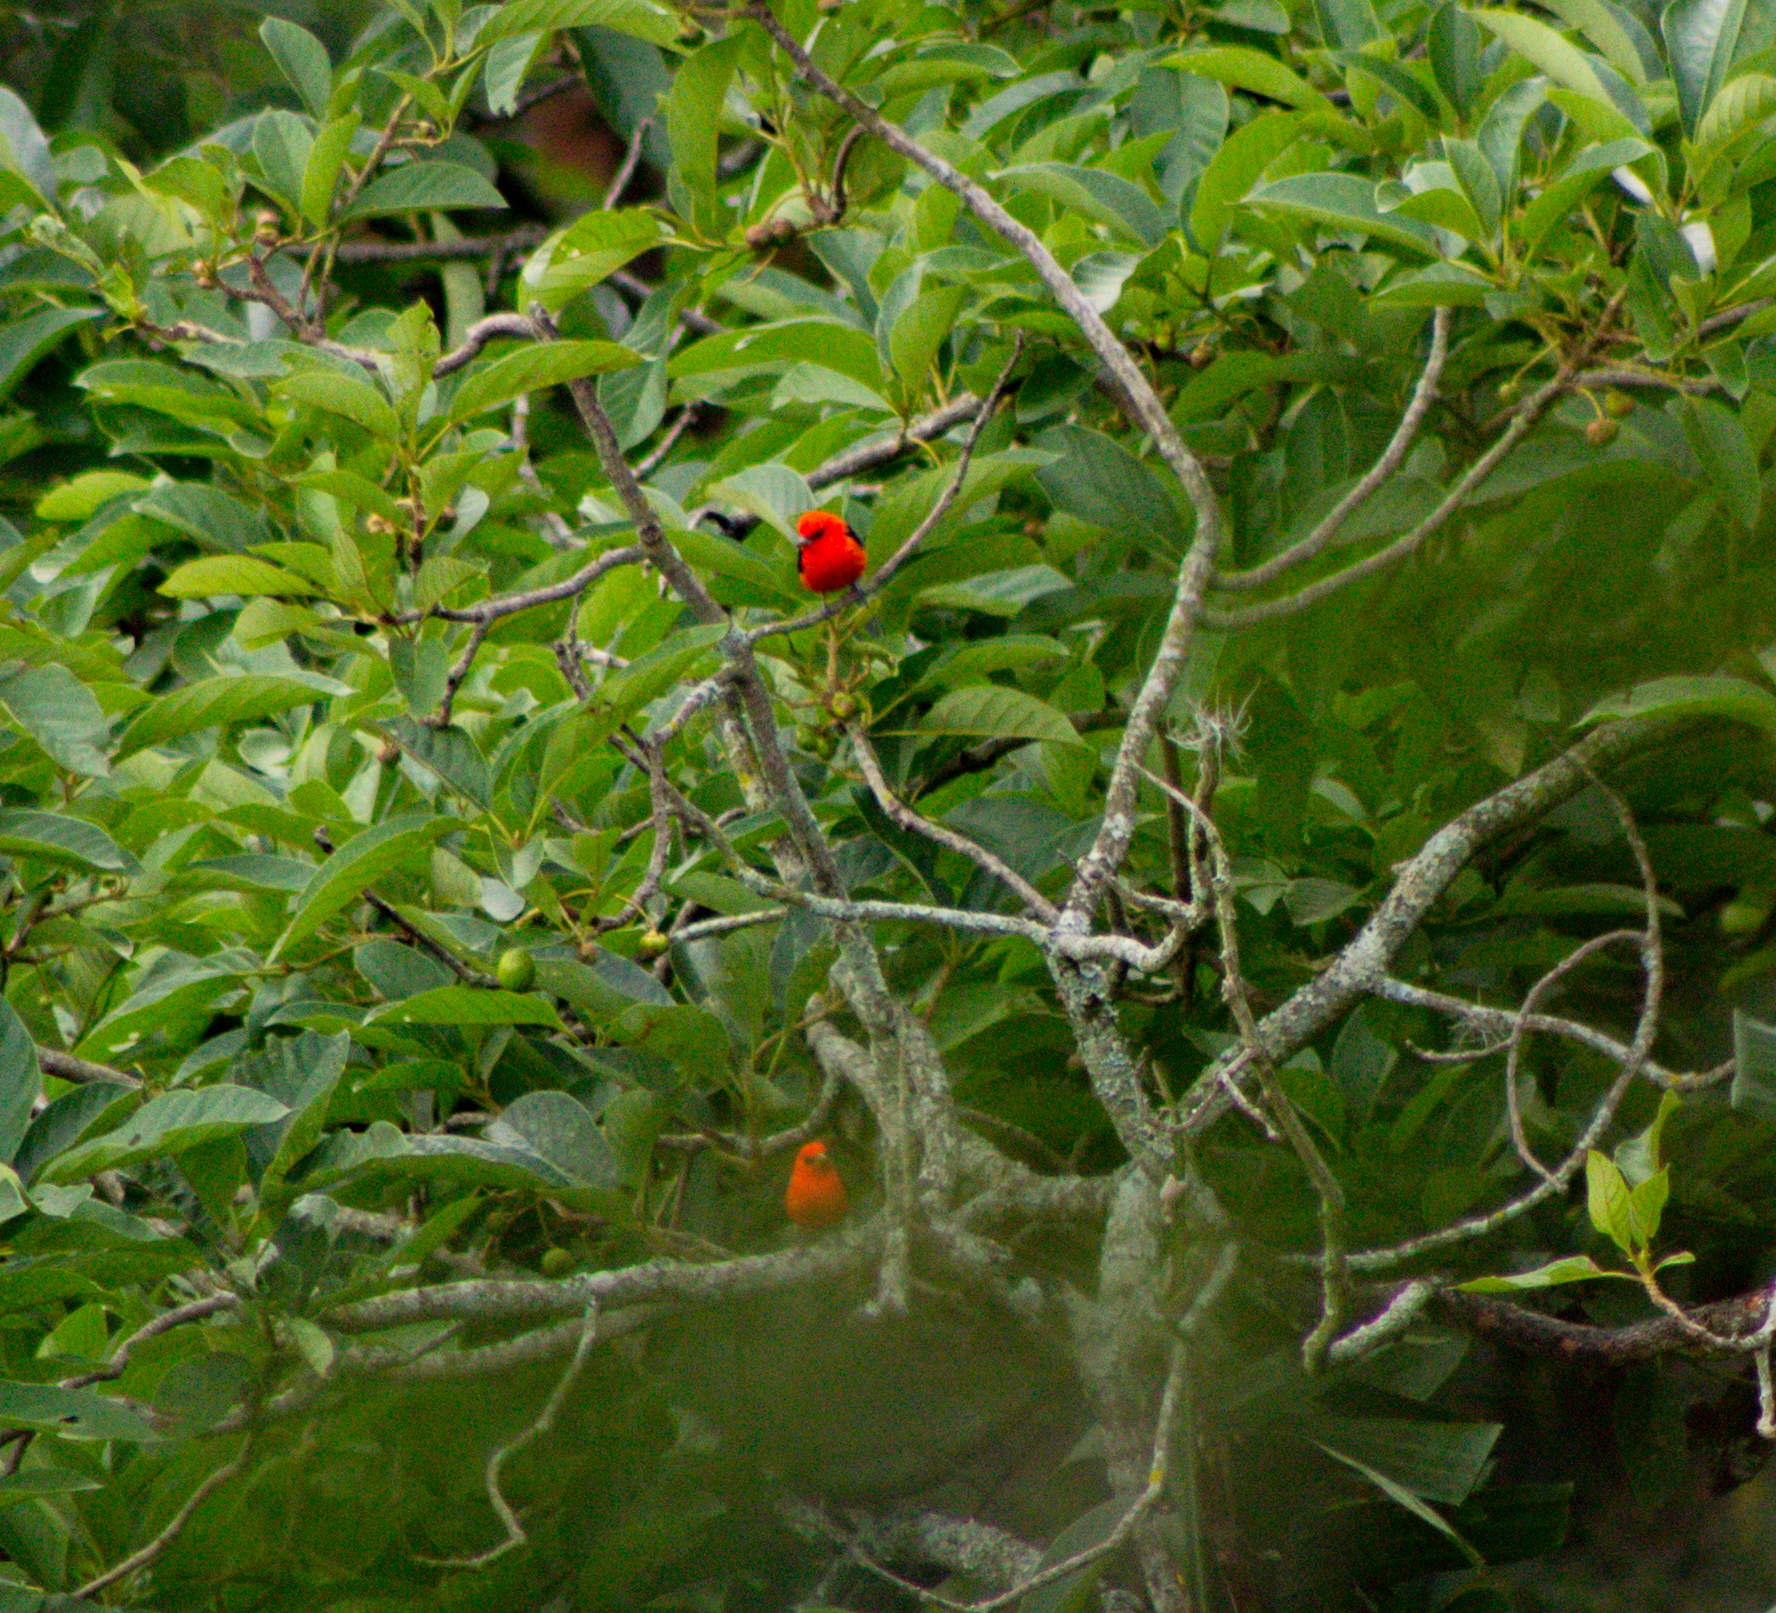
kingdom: Animalia
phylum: Chordata
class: Aves
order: Passeriformes
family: Cardinalidae
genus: Piranga
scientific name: Piranga olivacea
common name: Scarlet tanager
